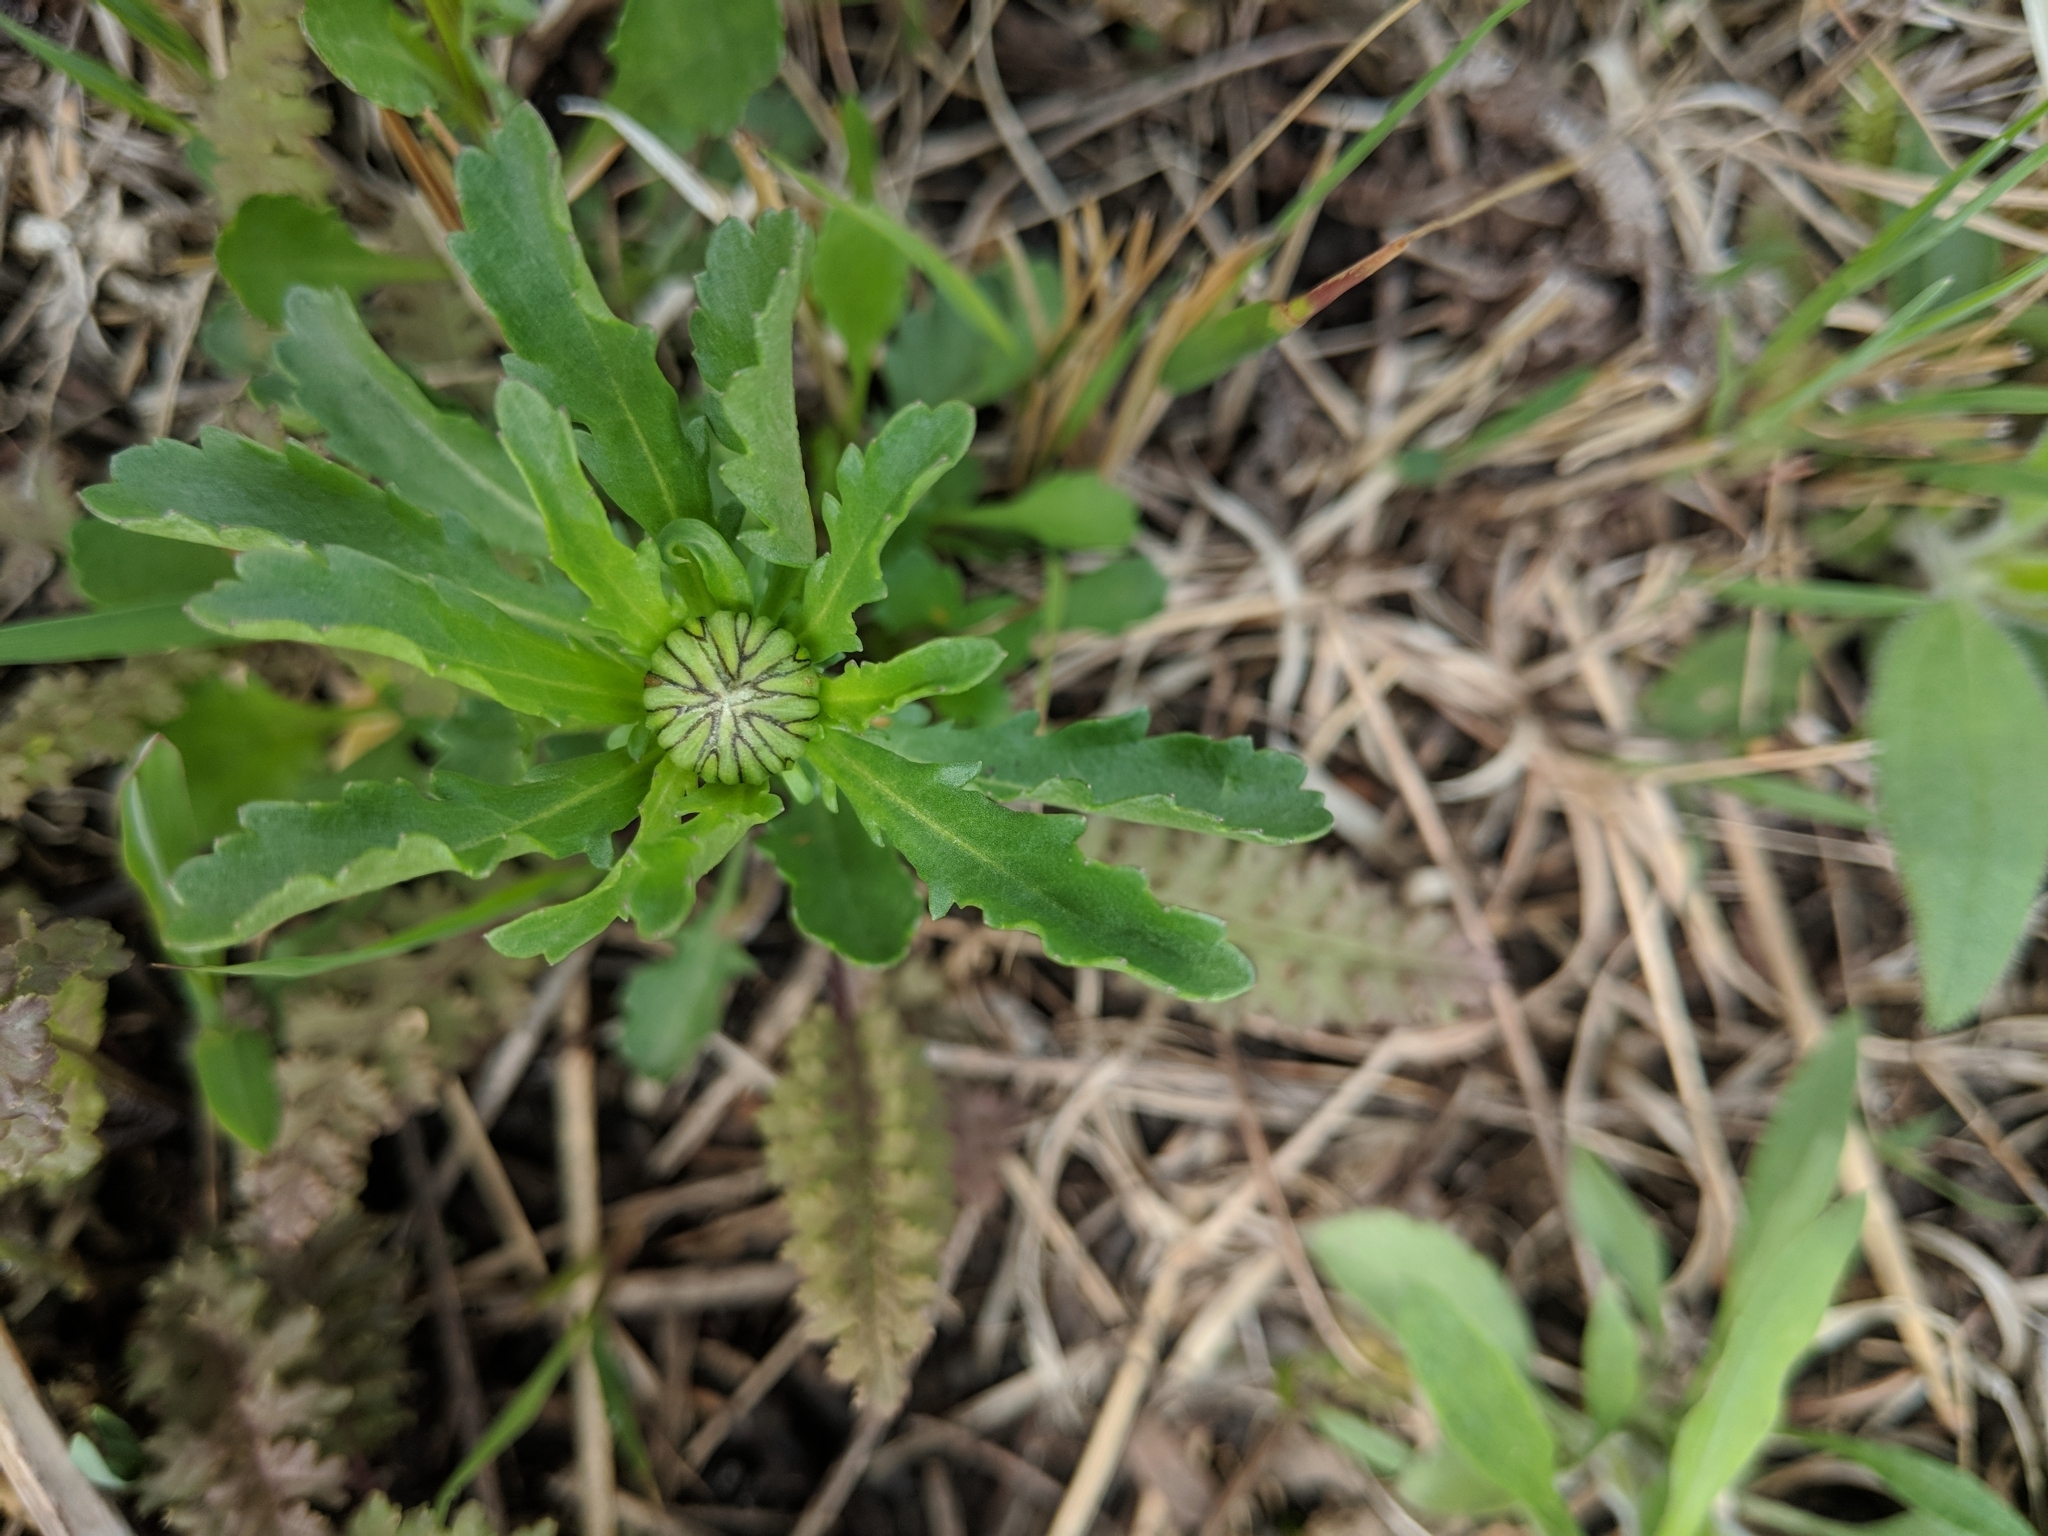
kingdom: Plantae
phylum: Tracheophyta
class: Magnoliopsida
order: Asterales
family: Asteraceae
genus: Leucanthemum
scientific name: Leucanthemum vulgare
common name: Oxeye daisy
